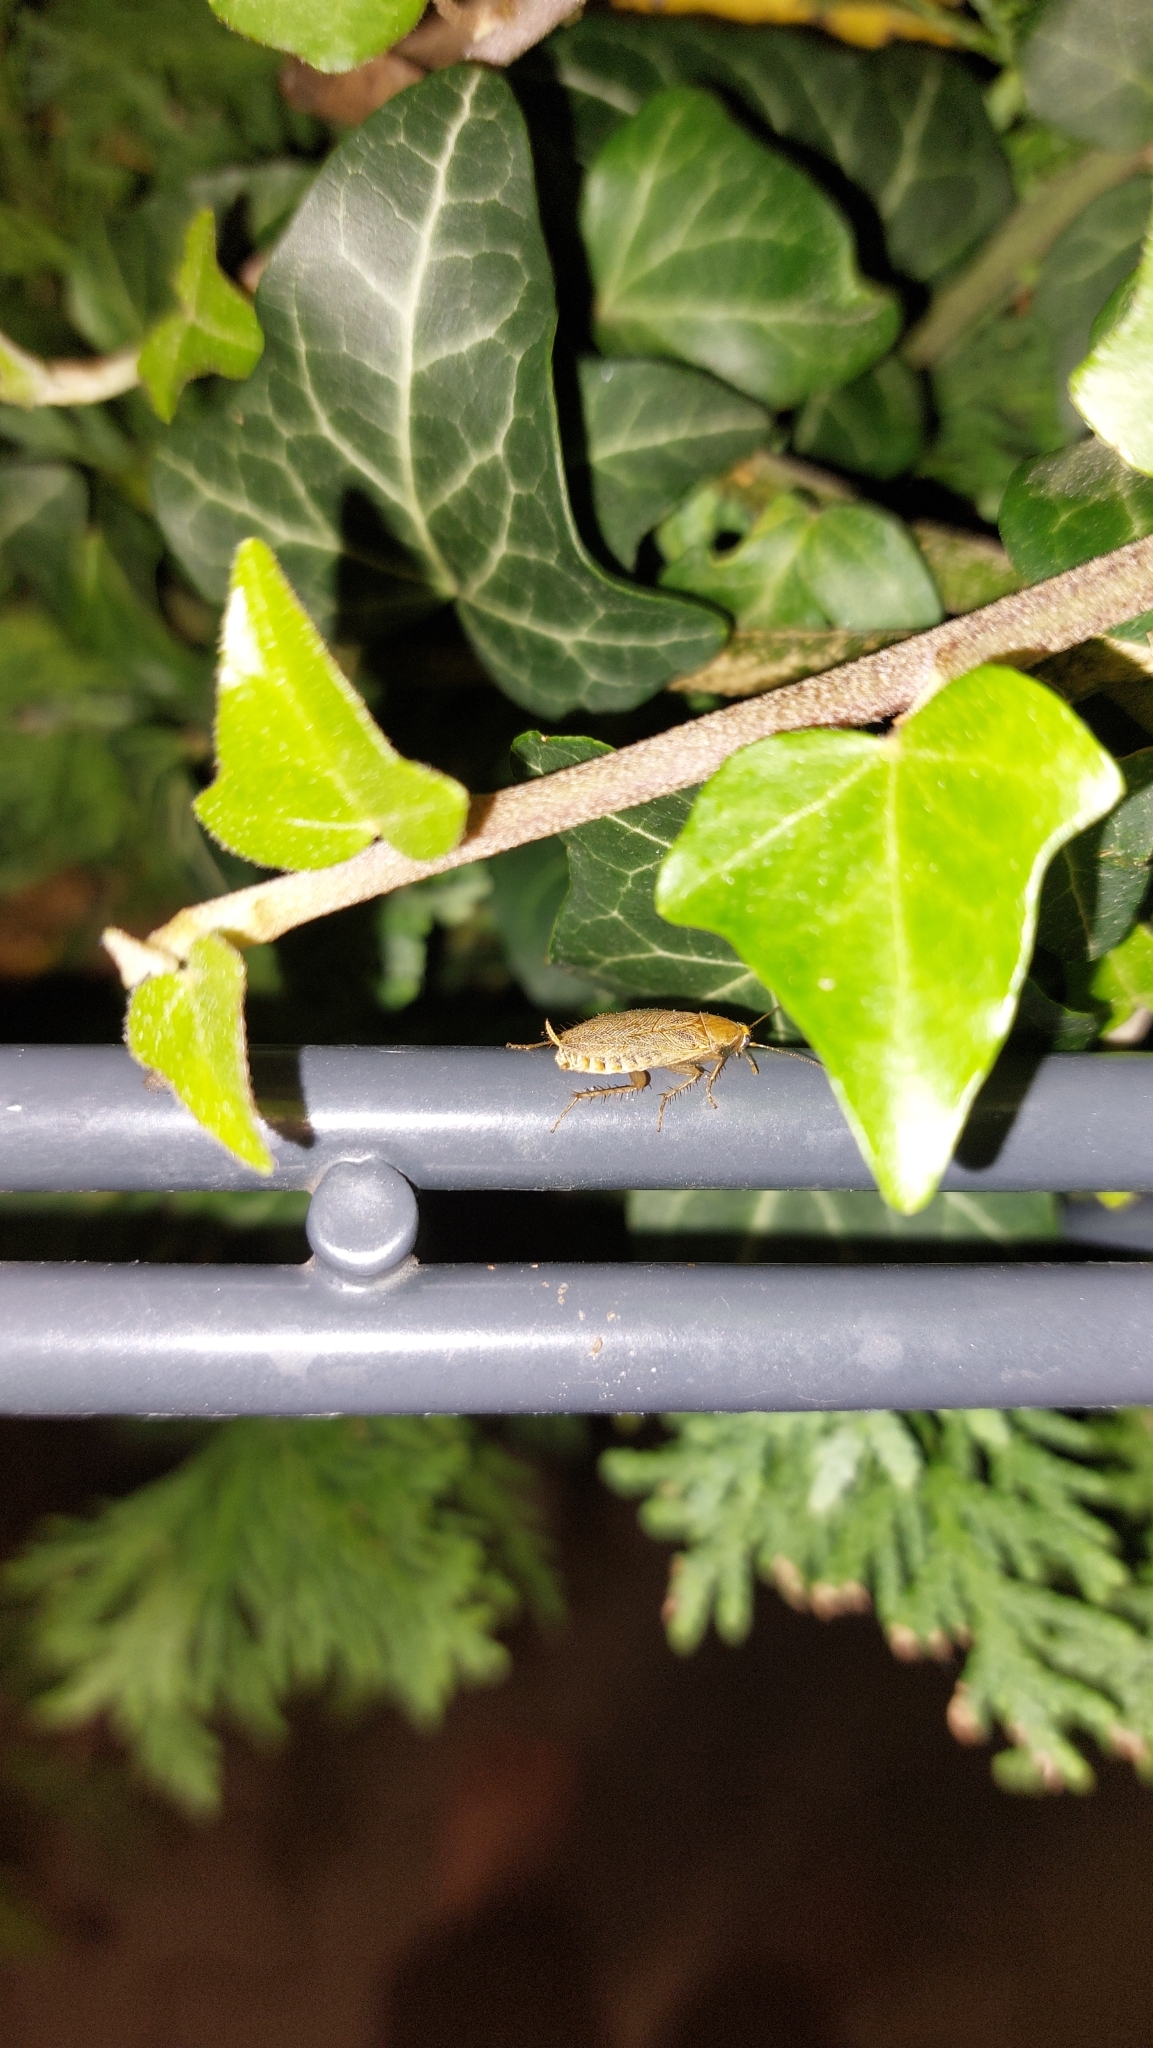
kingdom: Animalia
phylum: Arthropoda
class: Insecta
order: Blattodea
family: Ectobiidae
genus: Ectobius
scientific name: Ectobius vittiventris
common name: Garden cockroach
